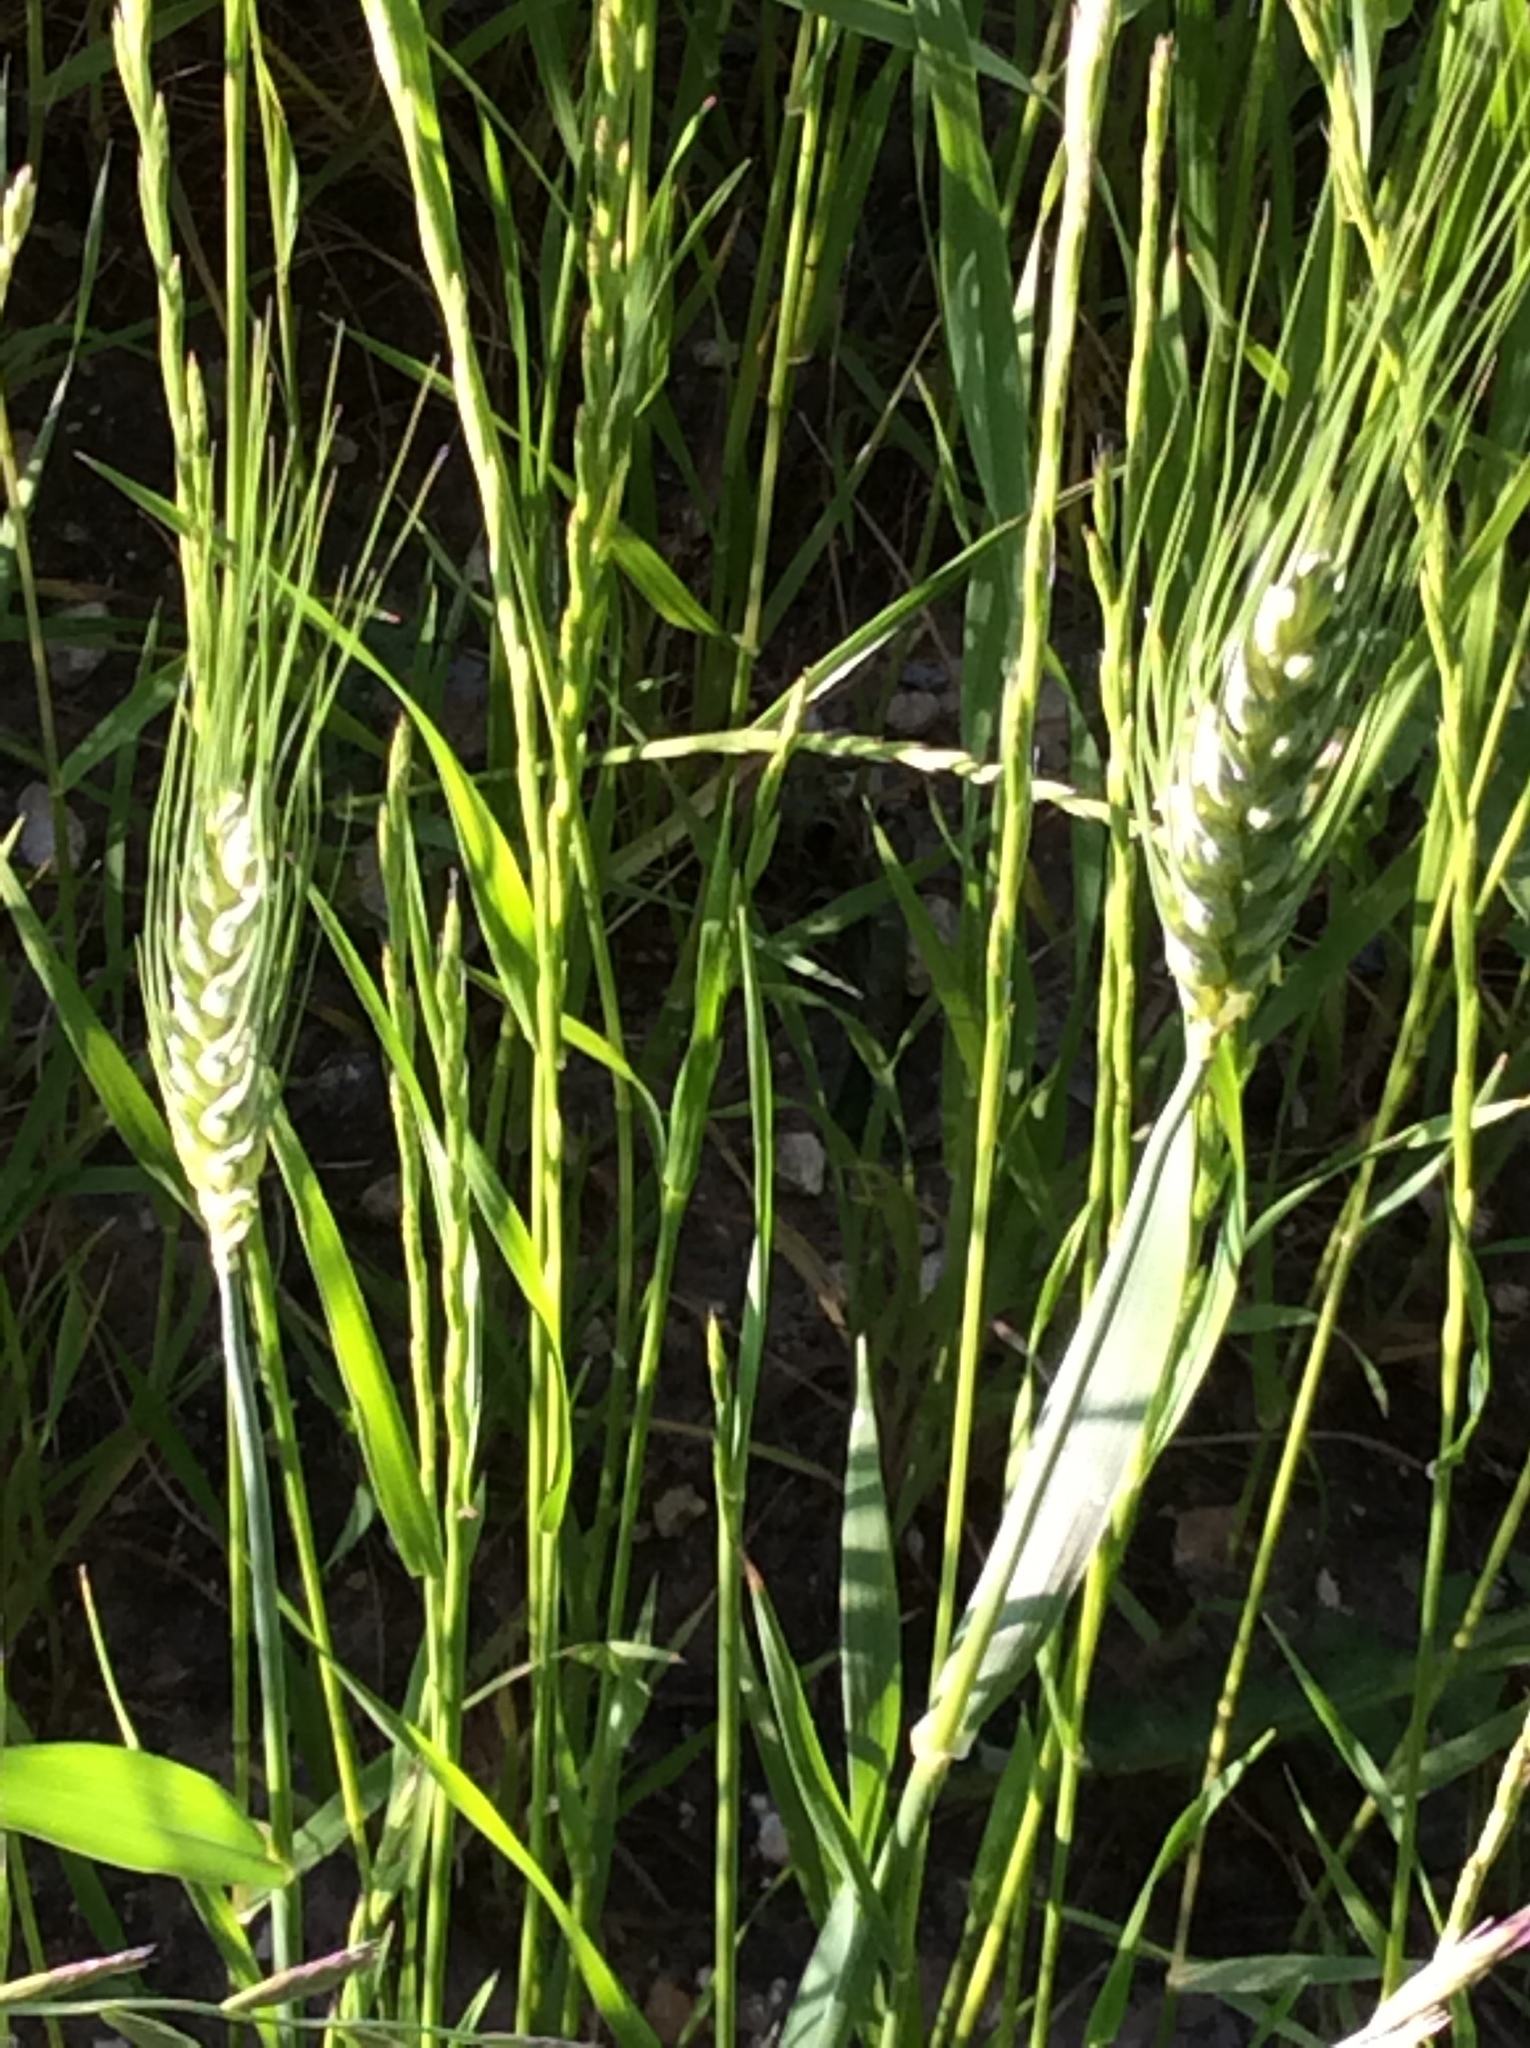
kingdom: Plantae
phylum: Tracheophyta
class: Liliopsida
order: Poales
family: Poaceae
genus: Triticum
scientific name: Triticum aestivum
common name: Common wheat
